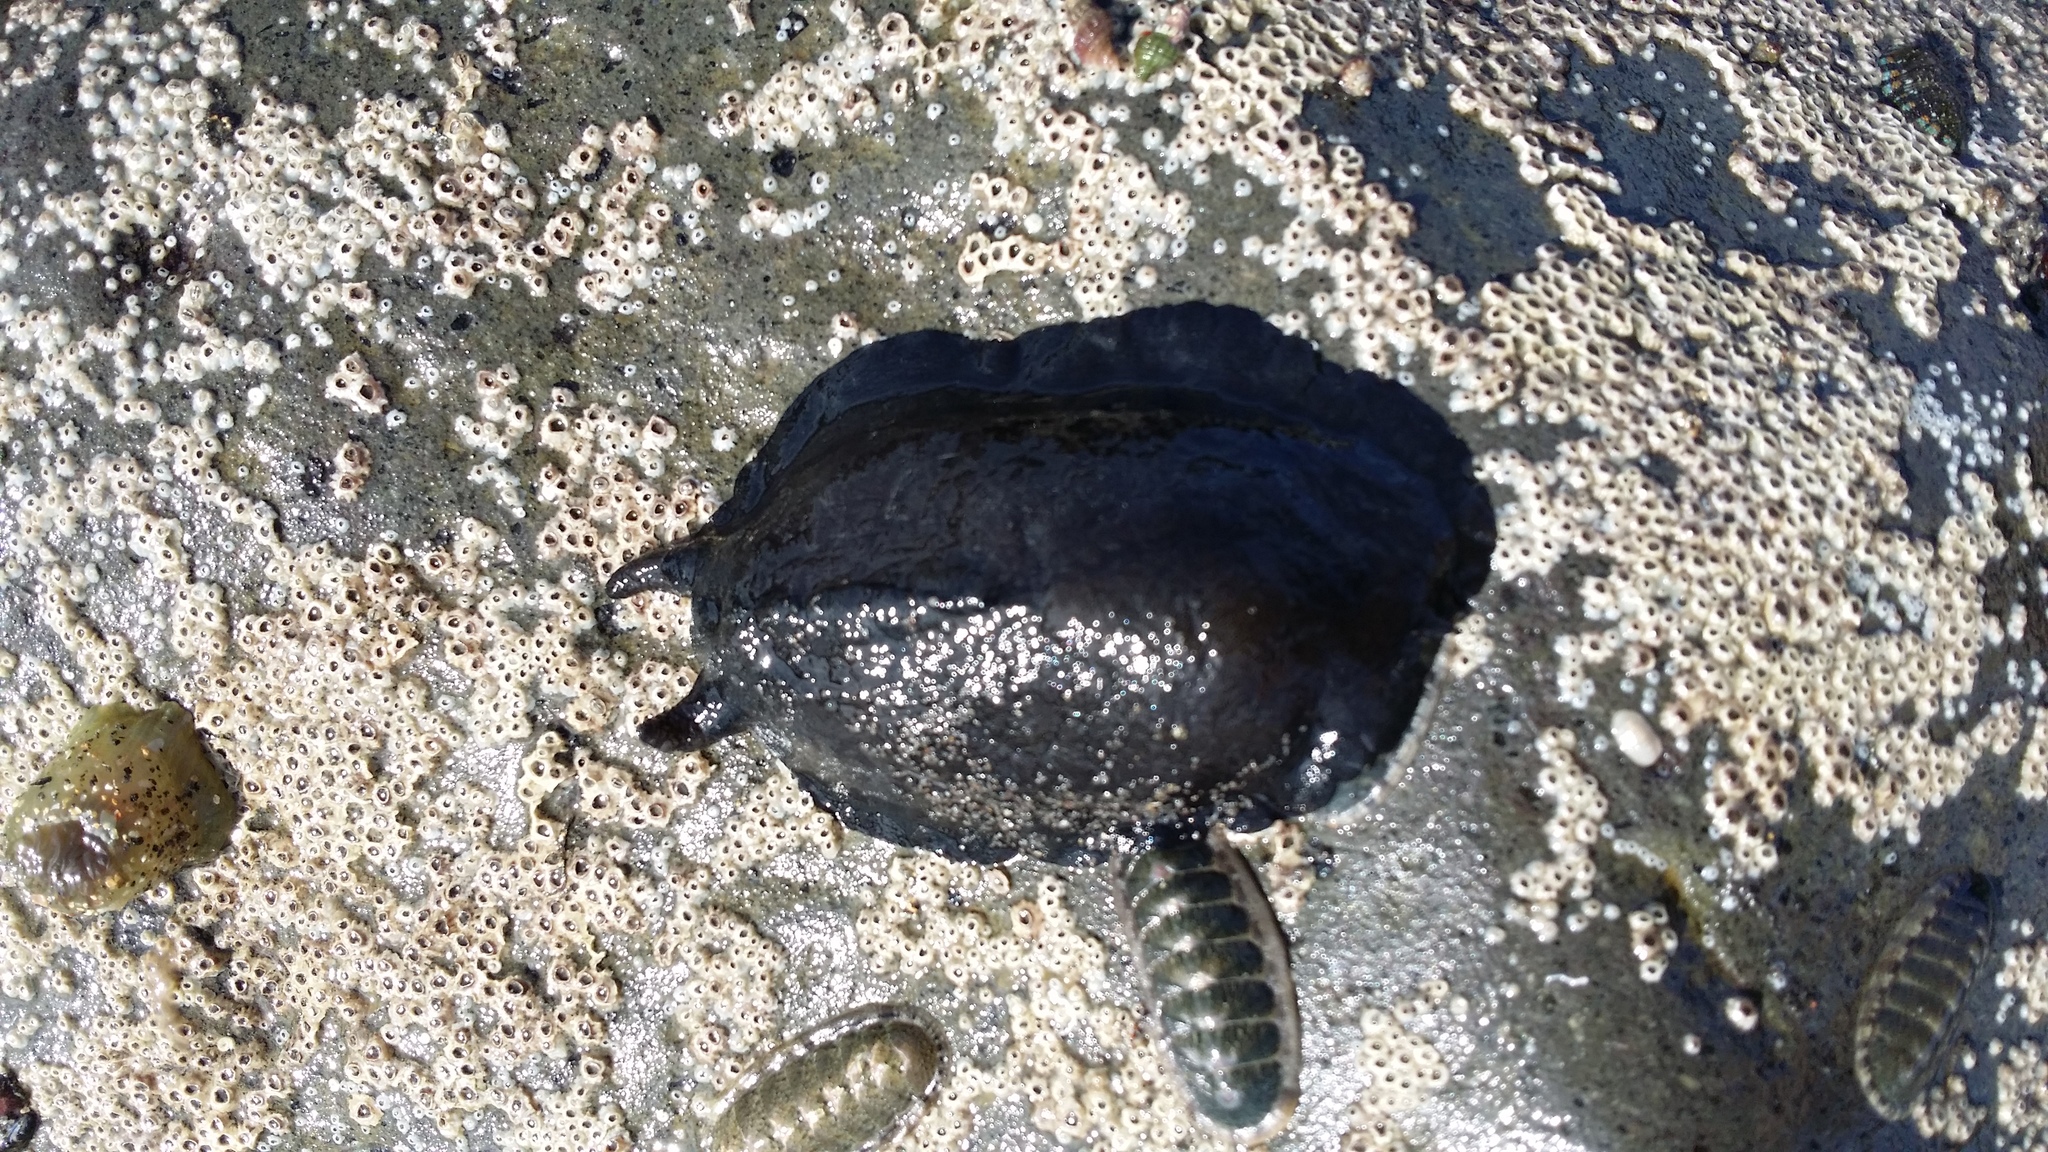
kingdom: Animalia
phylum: Mollusca
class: Gastropoda
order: Lepetellida
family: Fissurellidae
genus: Scutus
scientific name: Scutus breviculus
